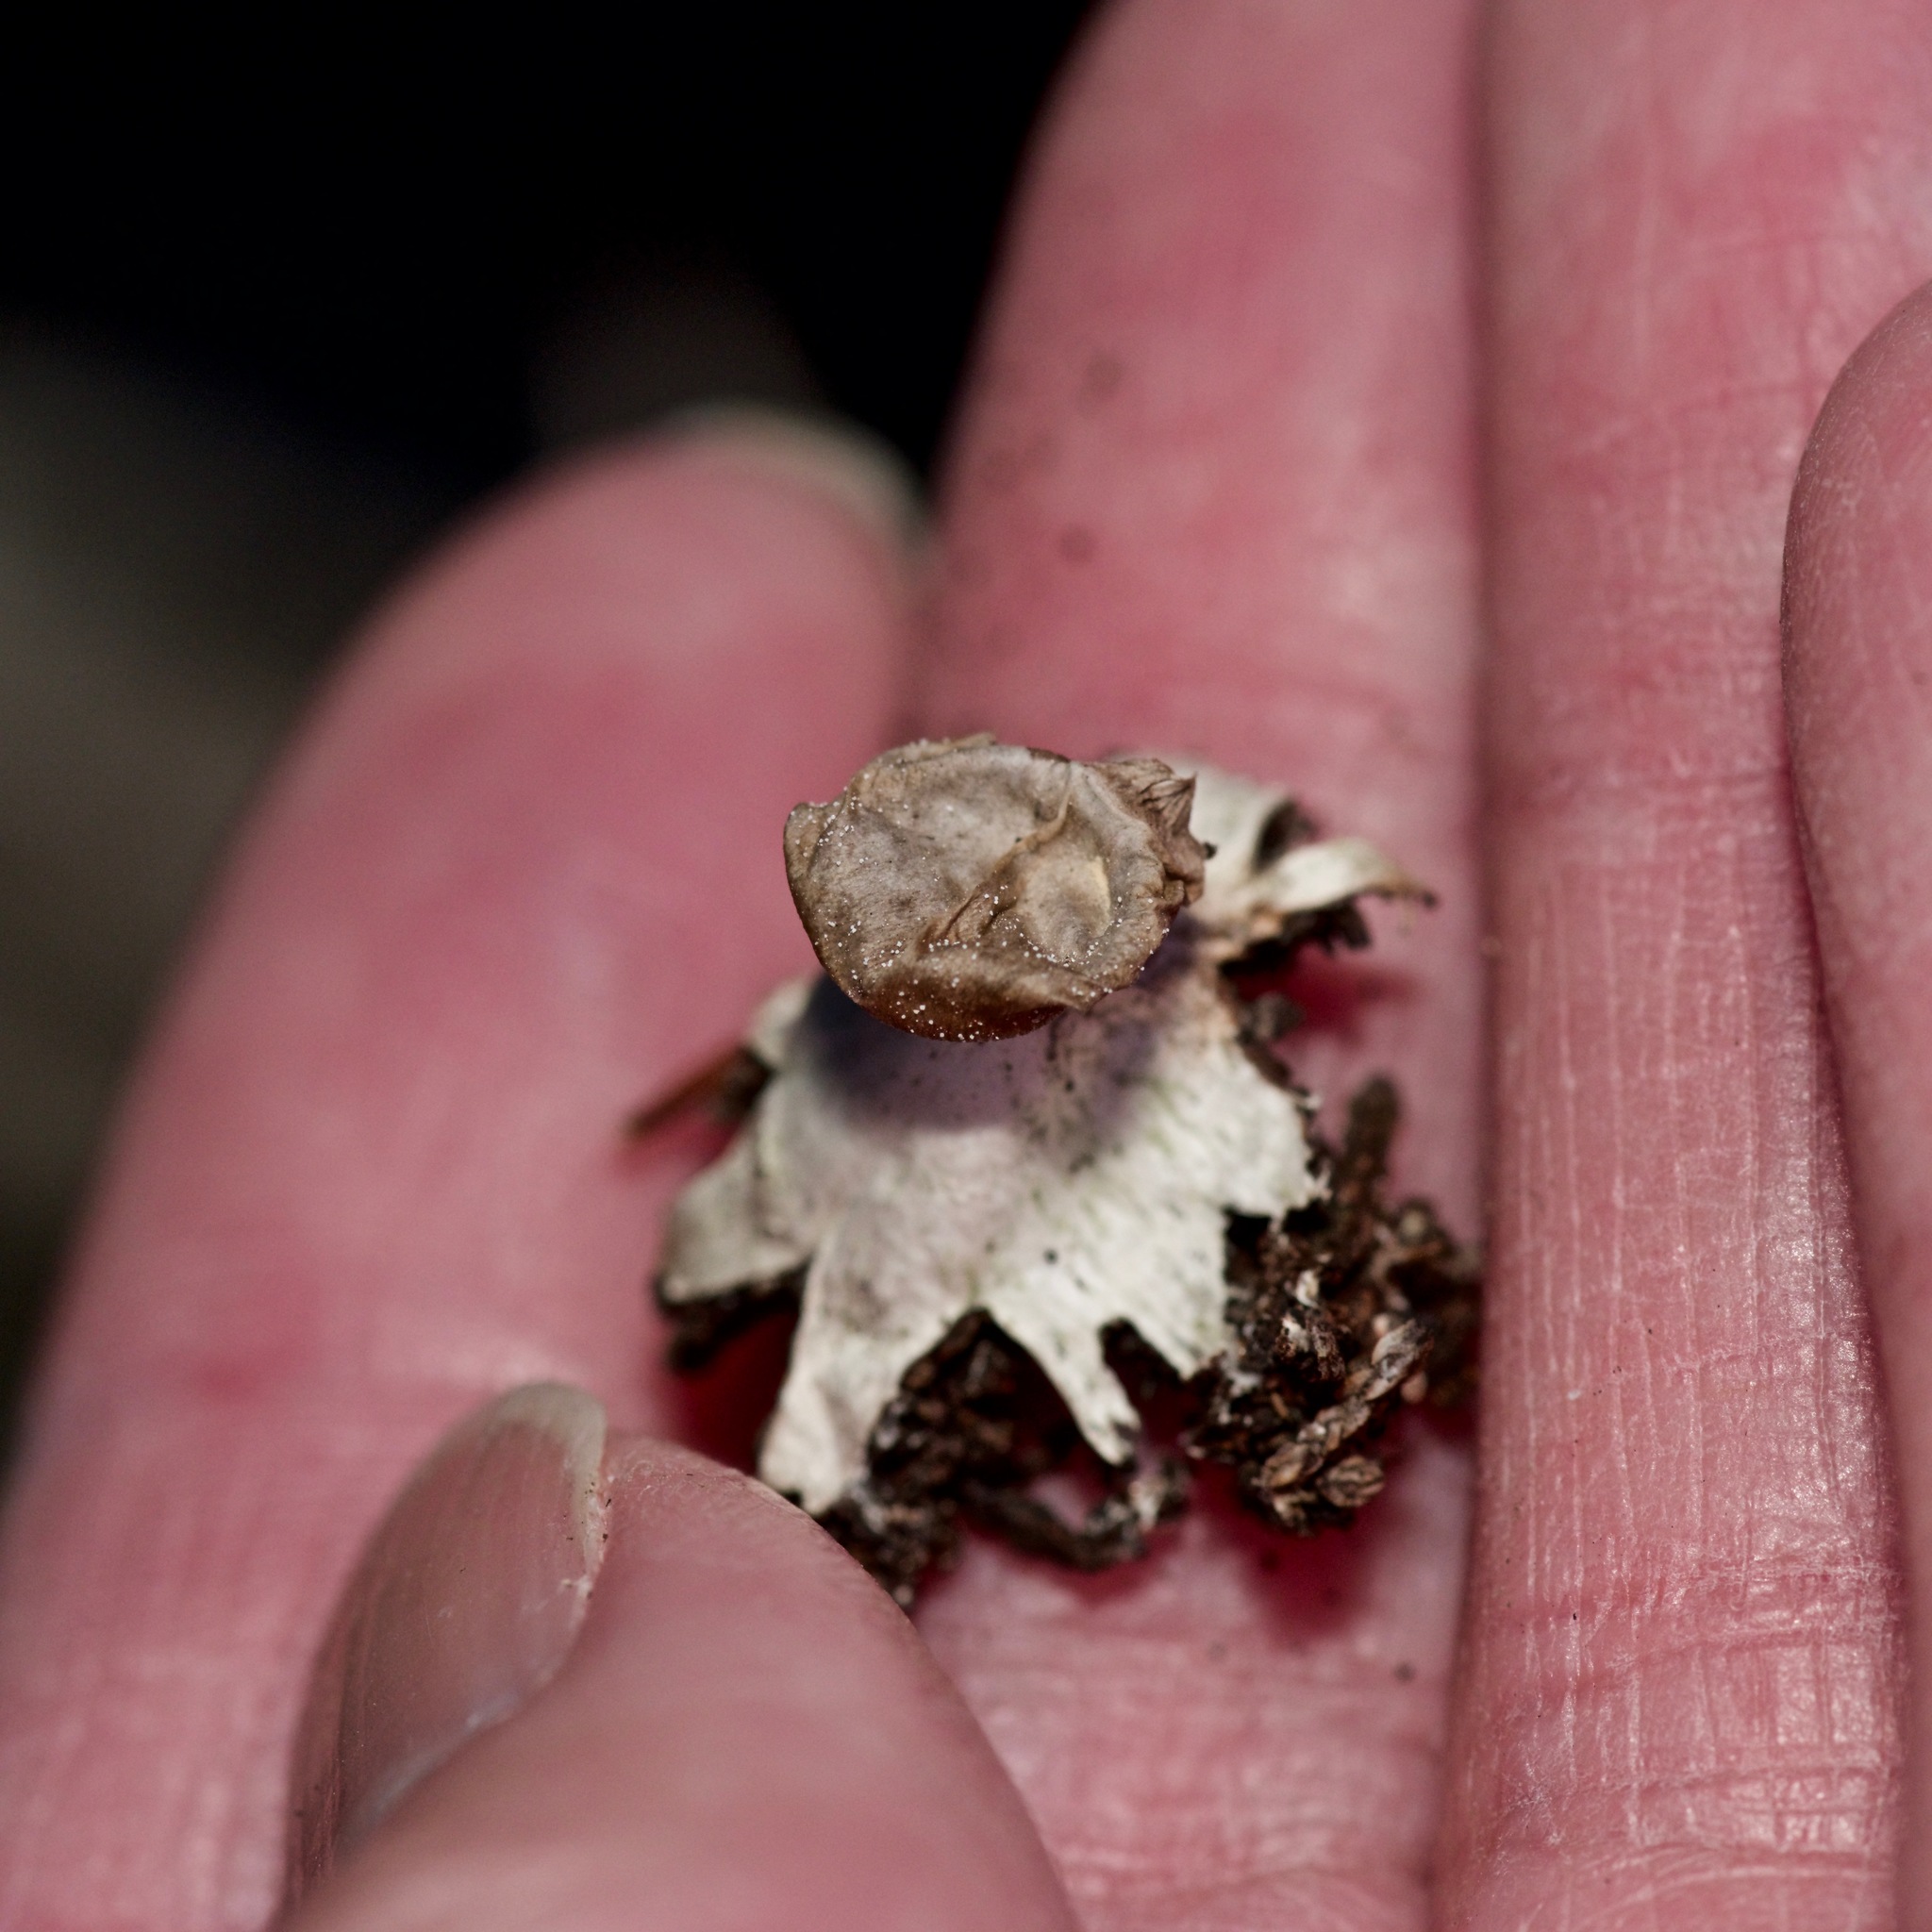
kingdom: Fungi
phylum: Basidiomycota
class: Agaricomycetes
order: Geastrales
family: Geastraceae
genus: Geastrum
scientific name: Geastrum saccatum
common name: Rounded earthstar
